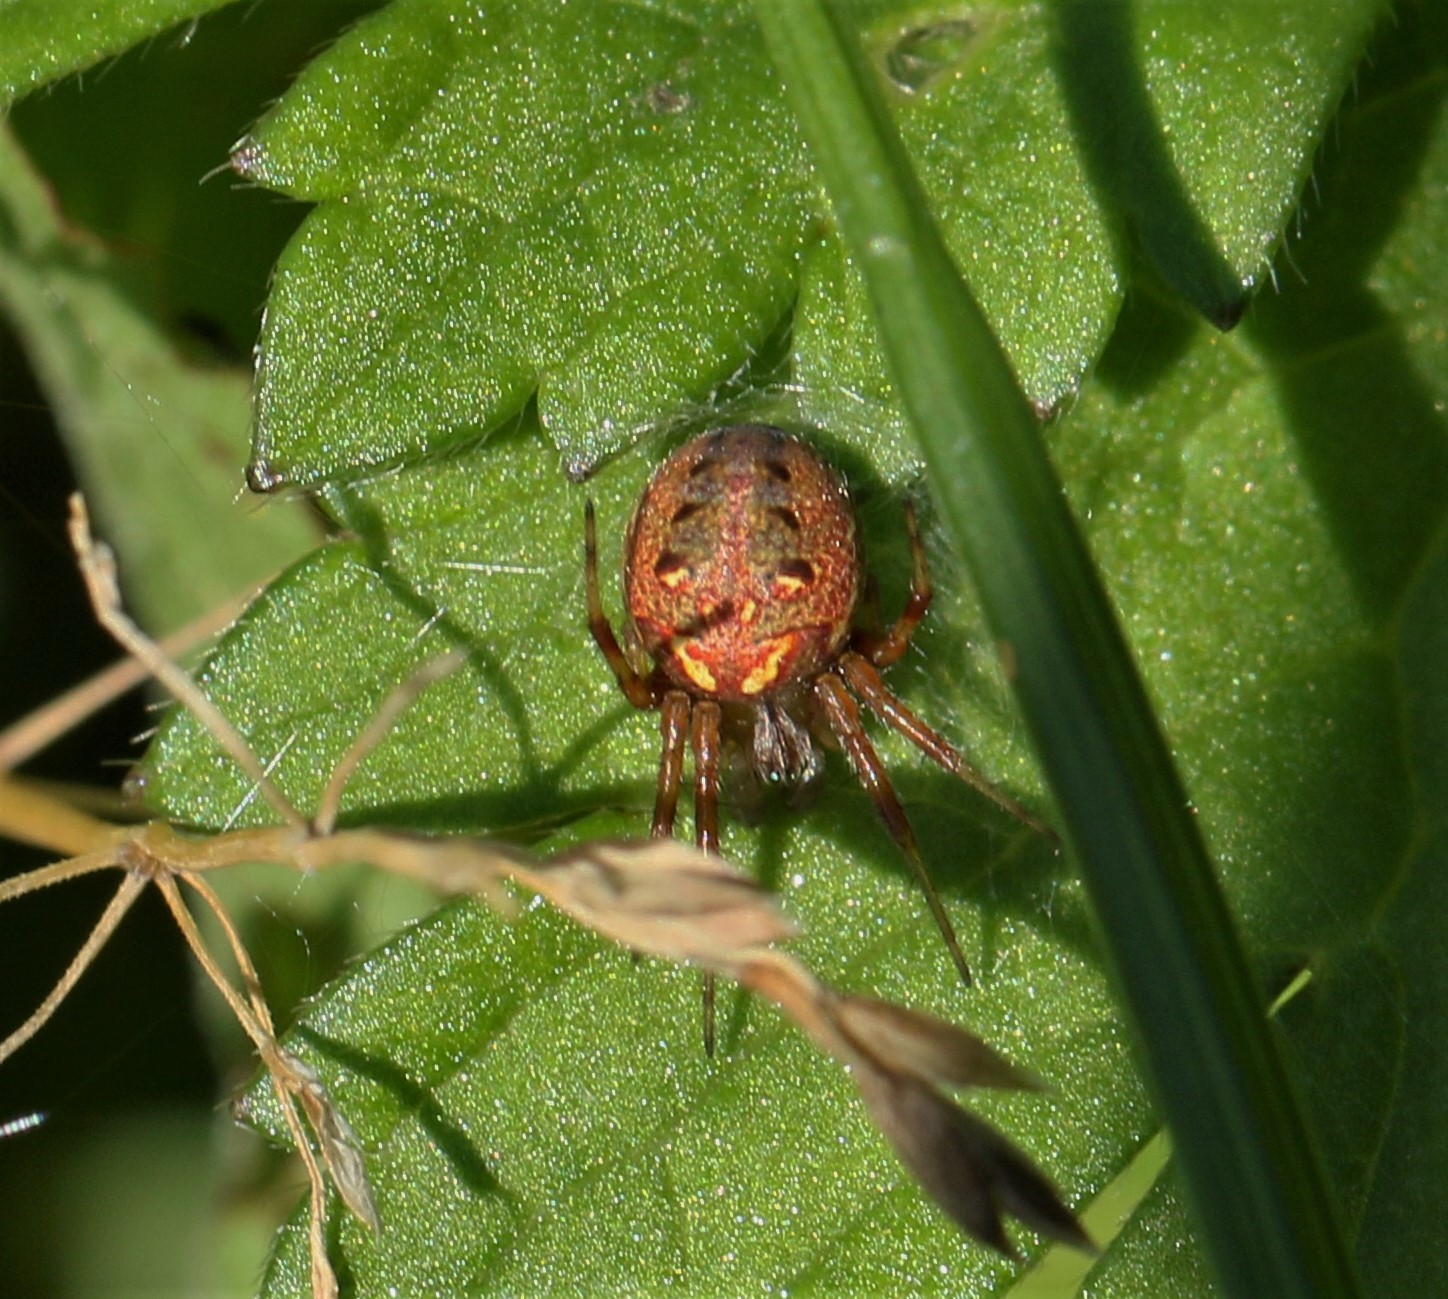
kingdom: Animalia
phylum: Arthropoda
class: Arachnida
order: Araneae
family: Araneidae
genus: Neoscona
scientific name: Neoscona arabesca
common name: Orb weavers
